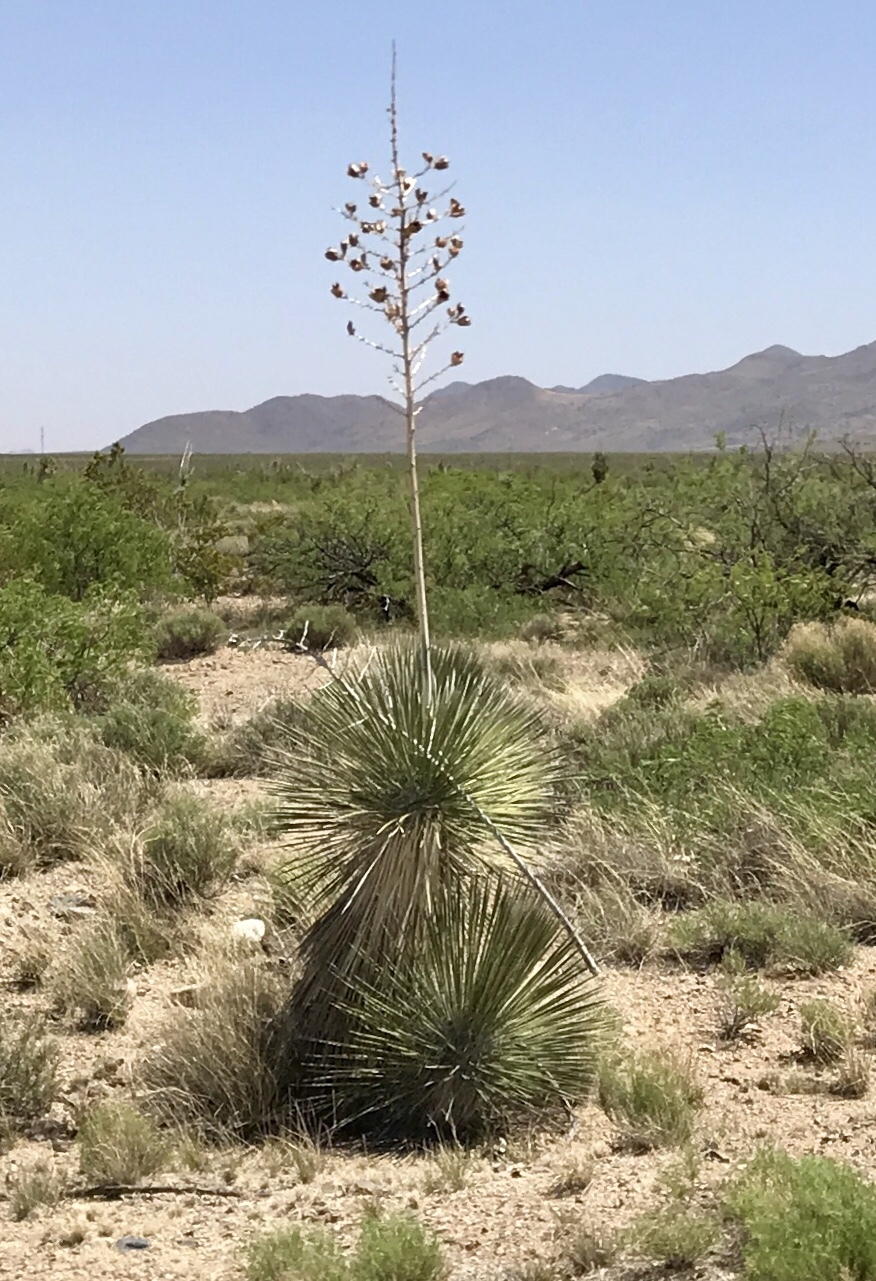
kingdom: Plantae
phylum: Tracheophyta
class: Liliopsida
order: Asparagales
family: Asparagaceae
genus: Yucca
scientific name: Yucca elata
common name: Palmella
